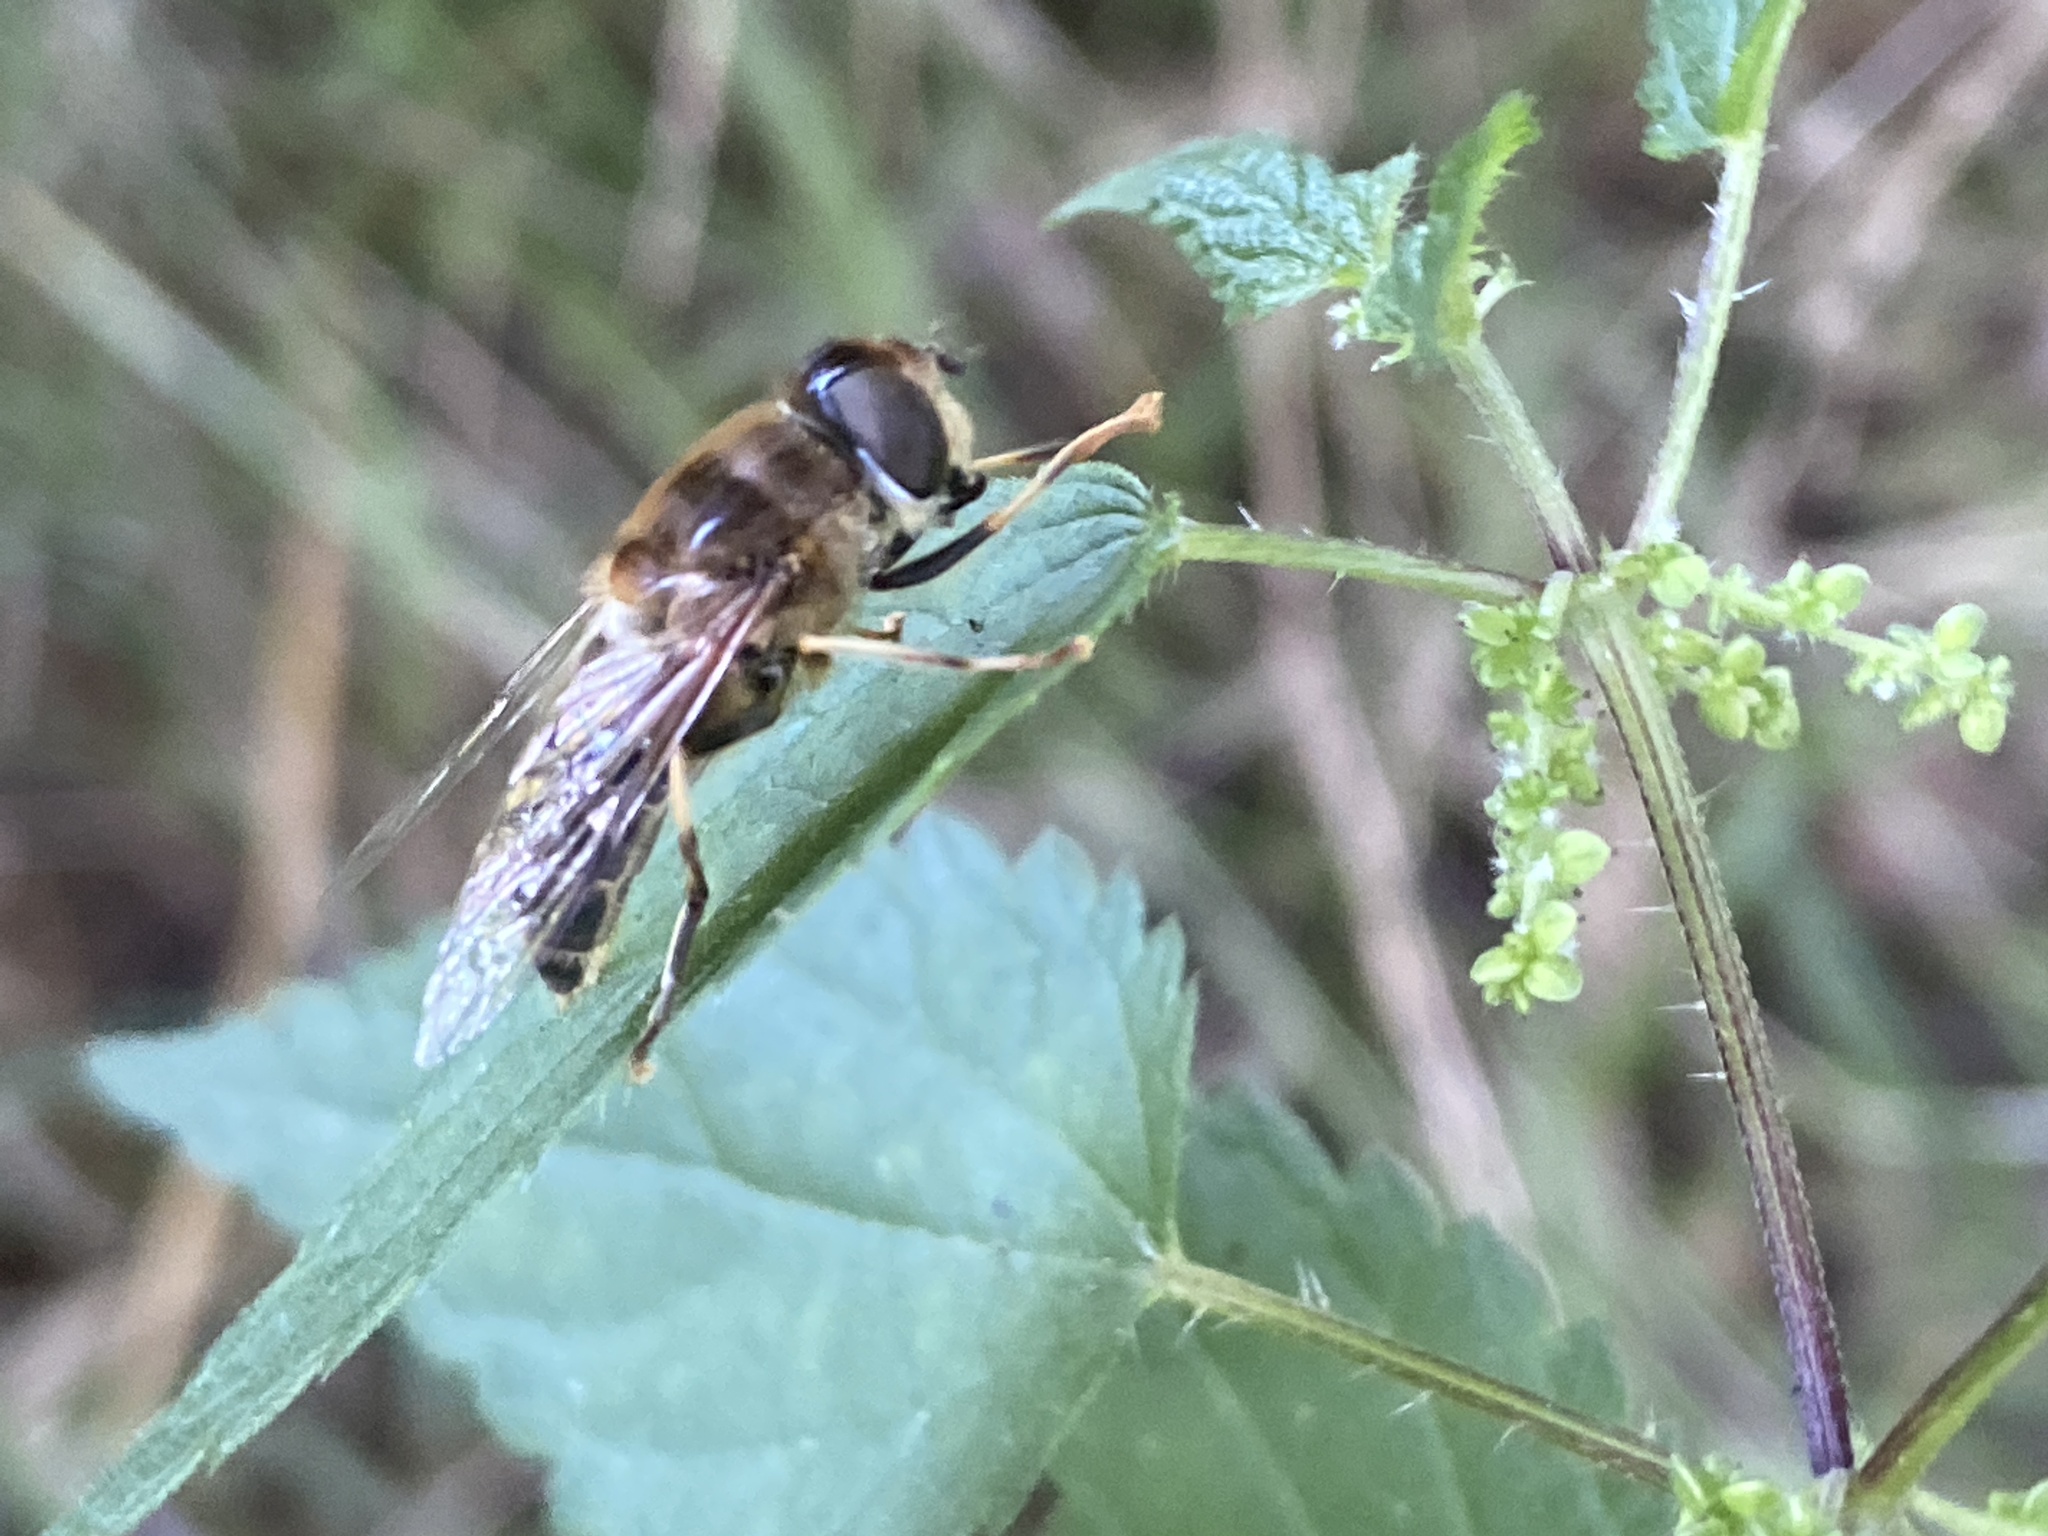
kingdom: Animalia
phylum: Arthropoda
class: Insecta
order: Diptera
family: Syrphidae
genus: Eristalis
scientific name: Eristalis pertinax
